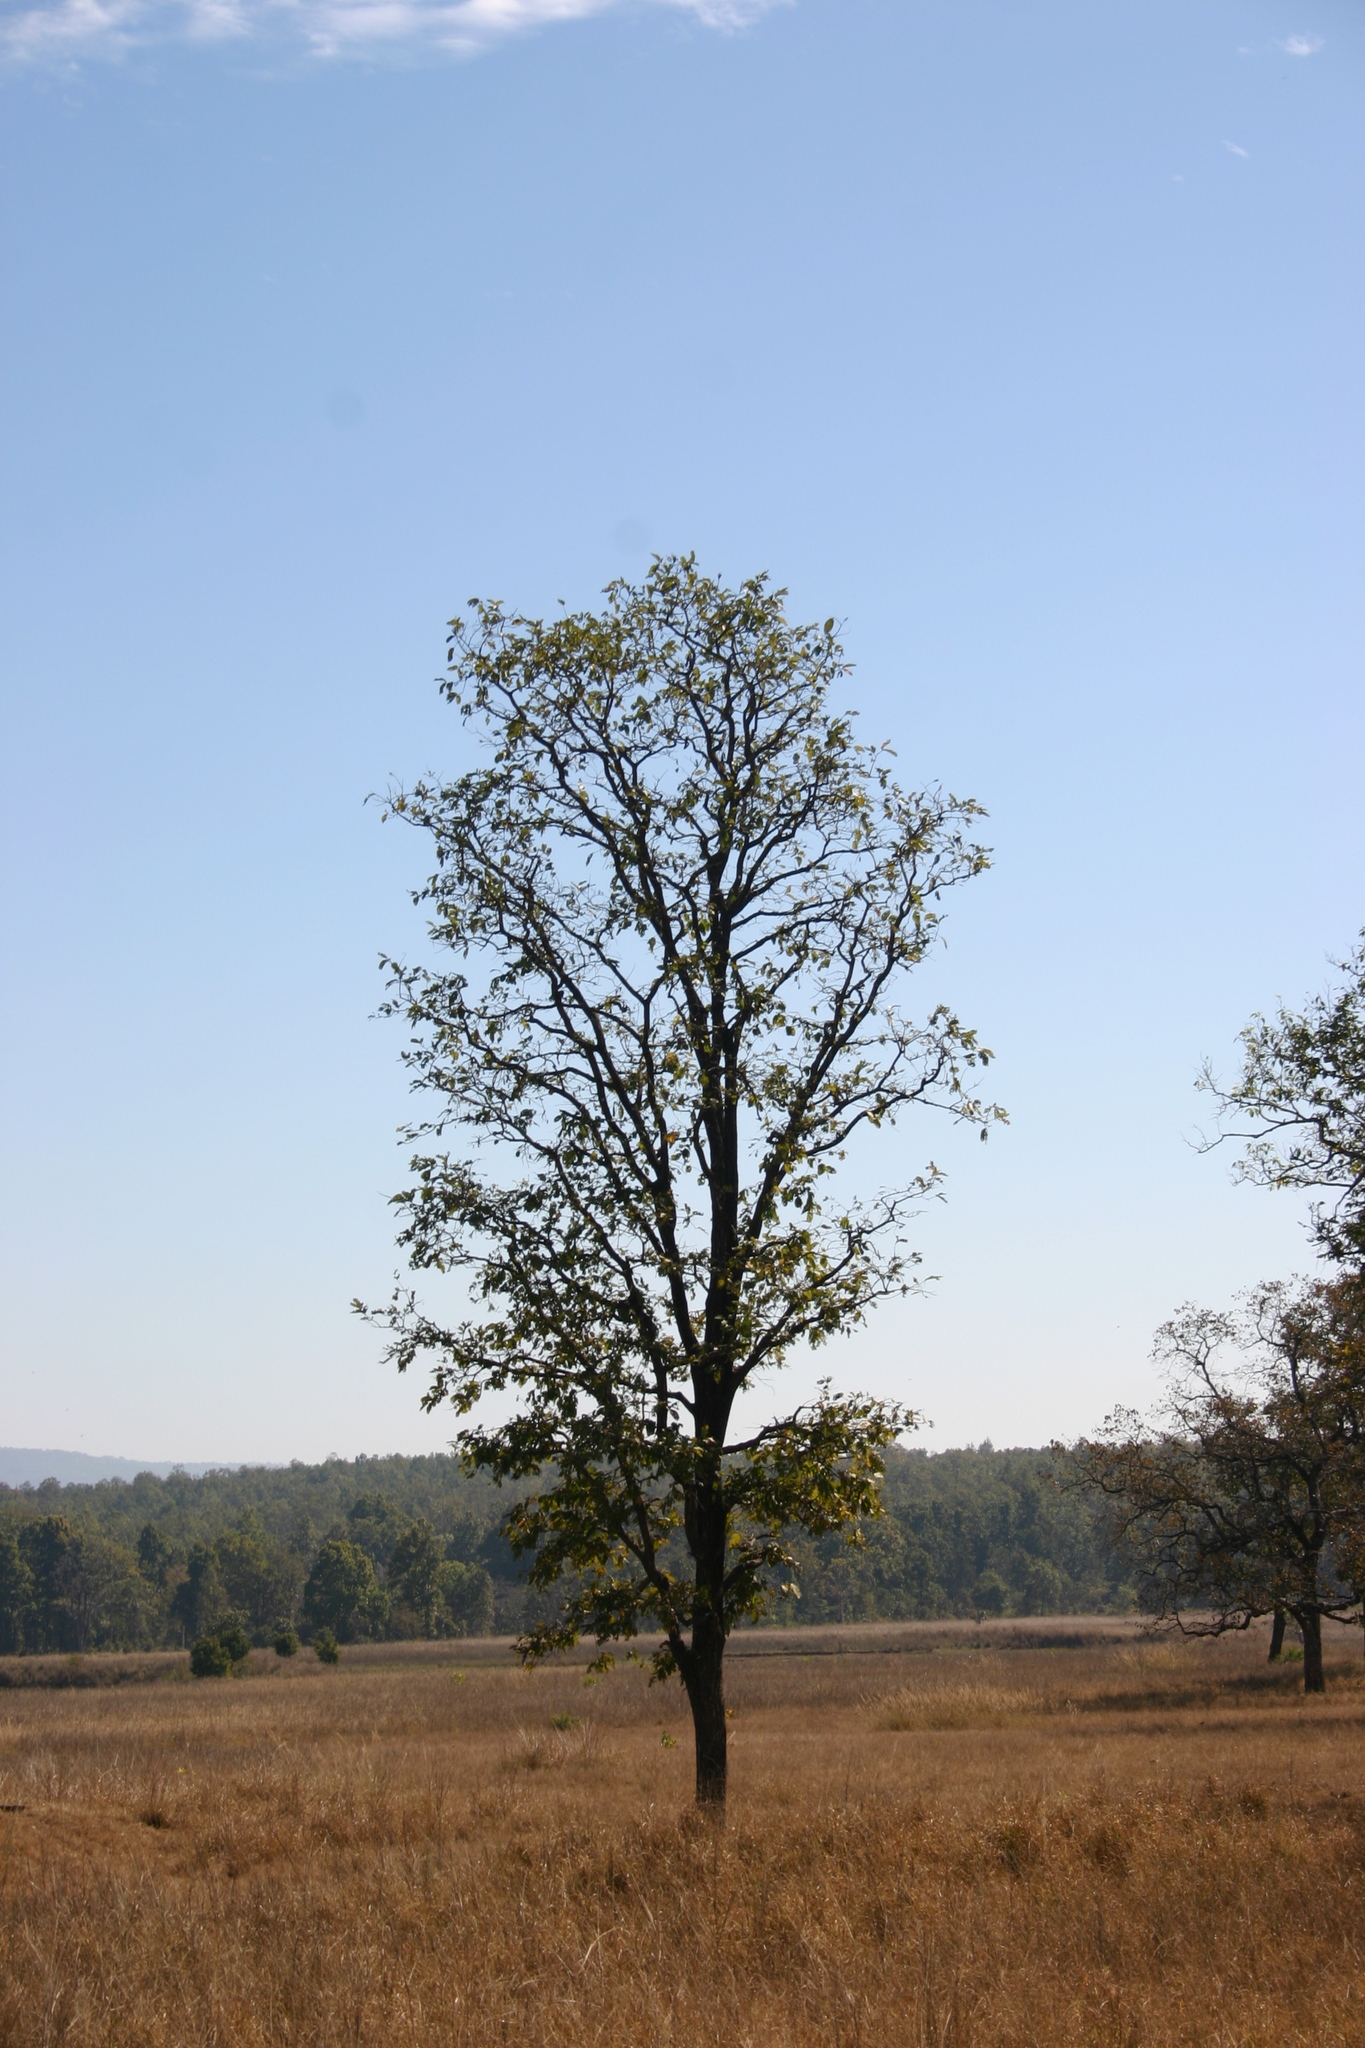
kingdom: Plantae
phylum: Tracheophyta
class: Magnoliopsida
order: Lamiales
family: Lamiaceae
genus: Tectona
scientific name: Tectona grandis
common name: Teak
